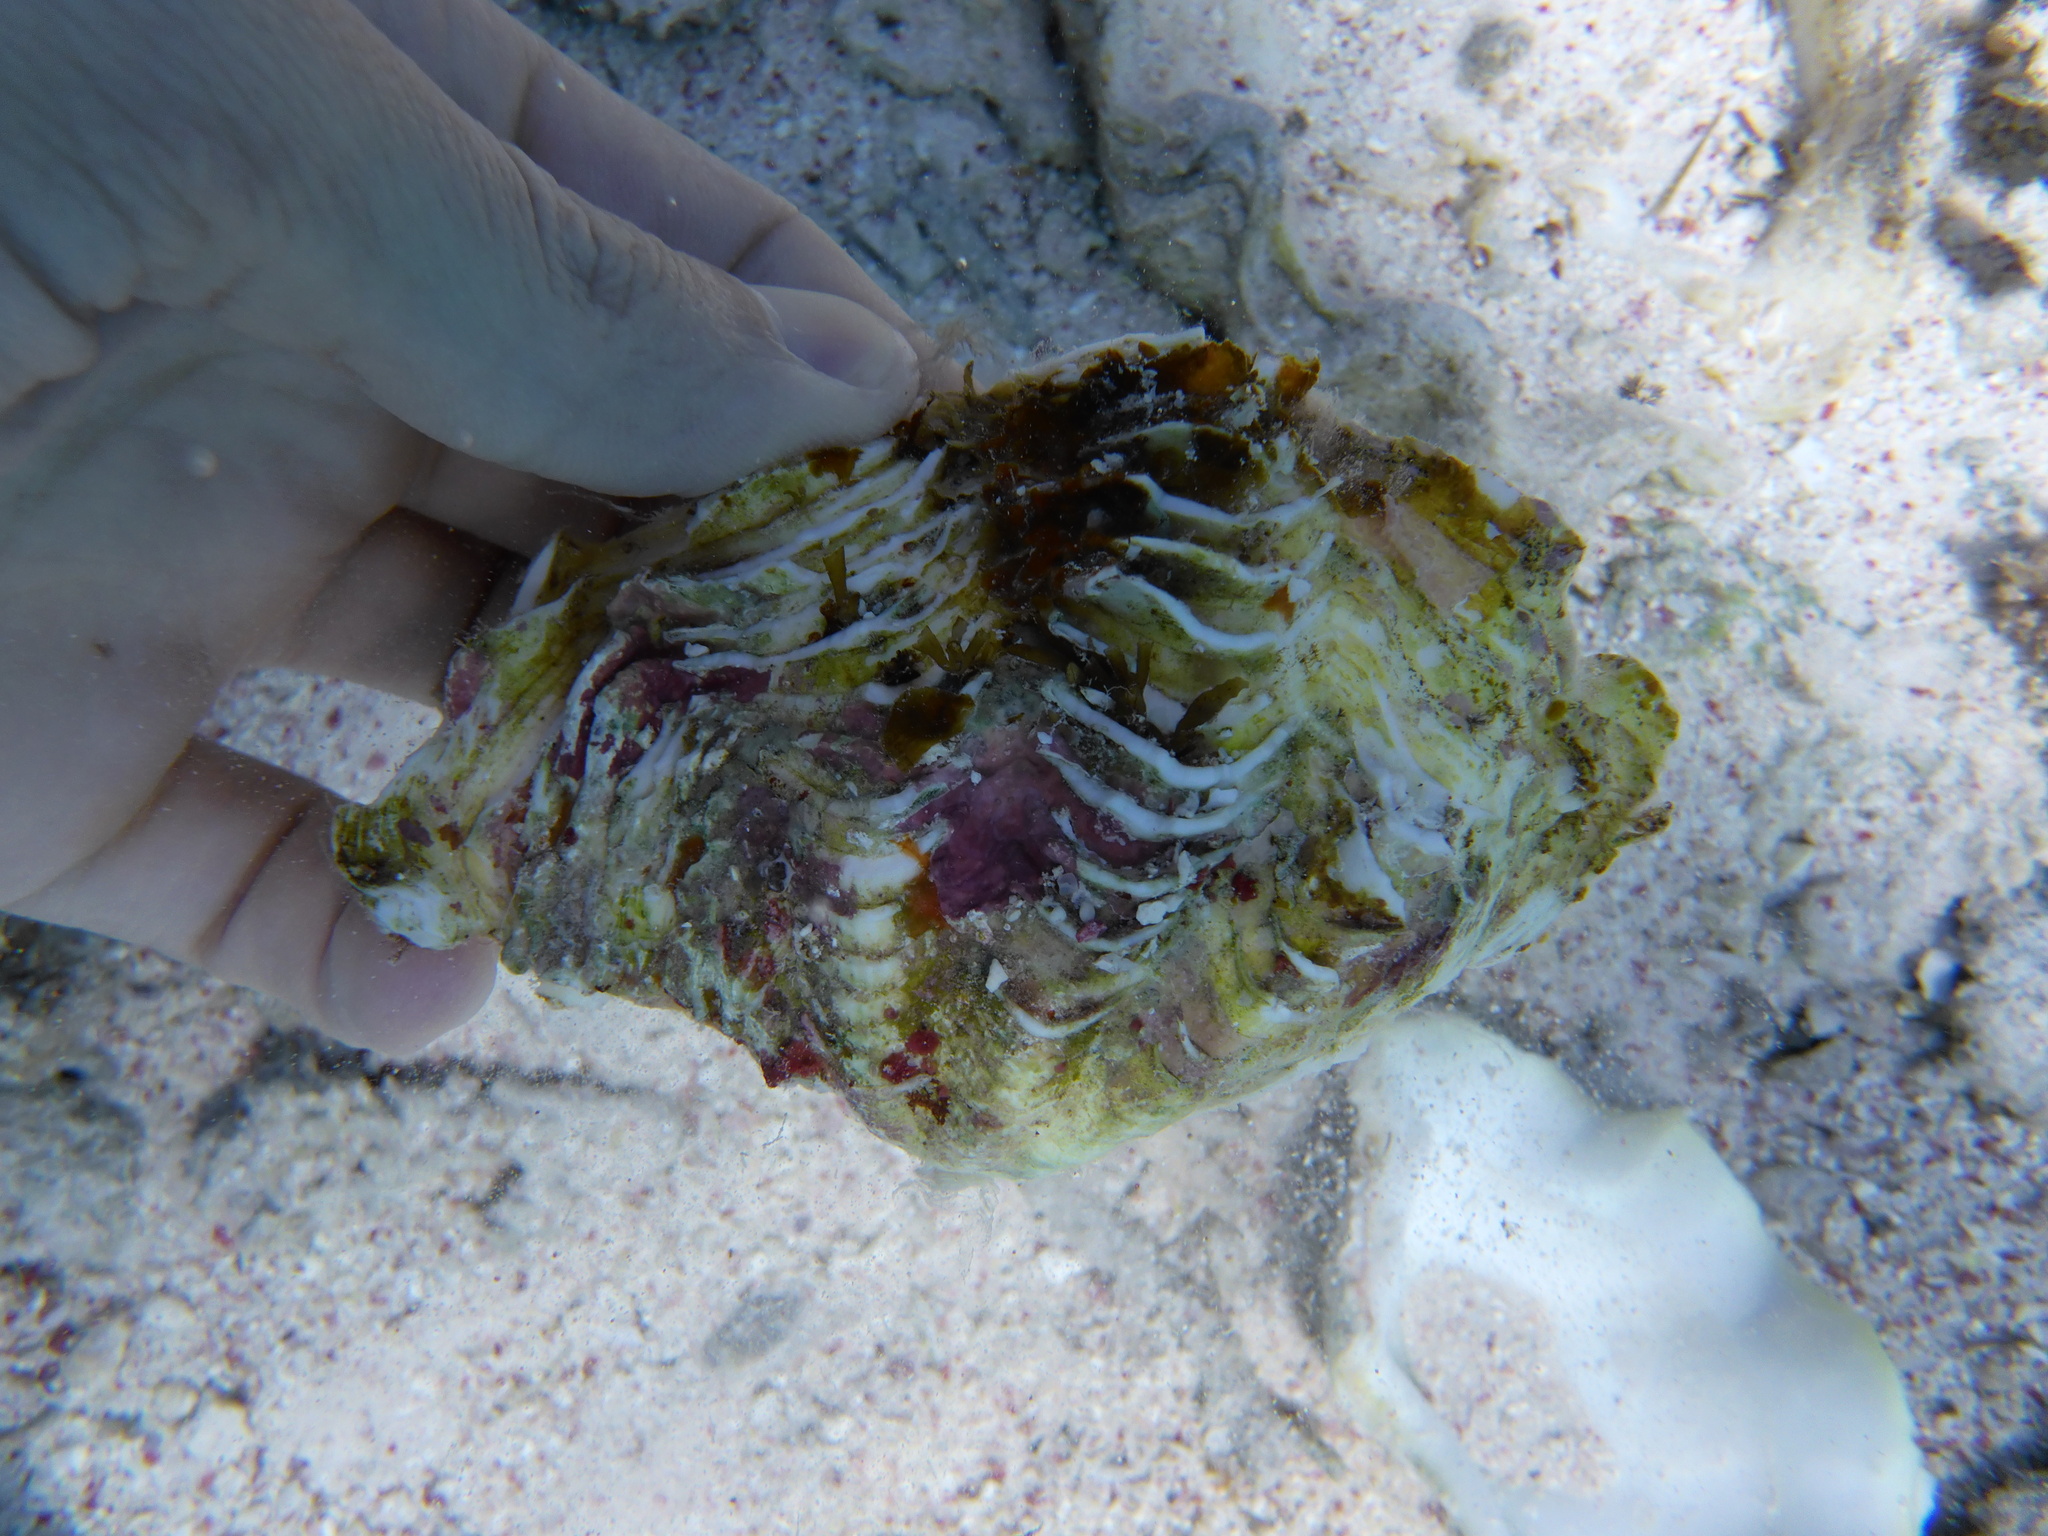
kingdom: Animalia
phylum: Mollusca
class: Bivalvia
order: Cardiida
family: Cardiidae
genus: Tridacna
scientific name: Tridacna maxima
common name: Small giant clam
